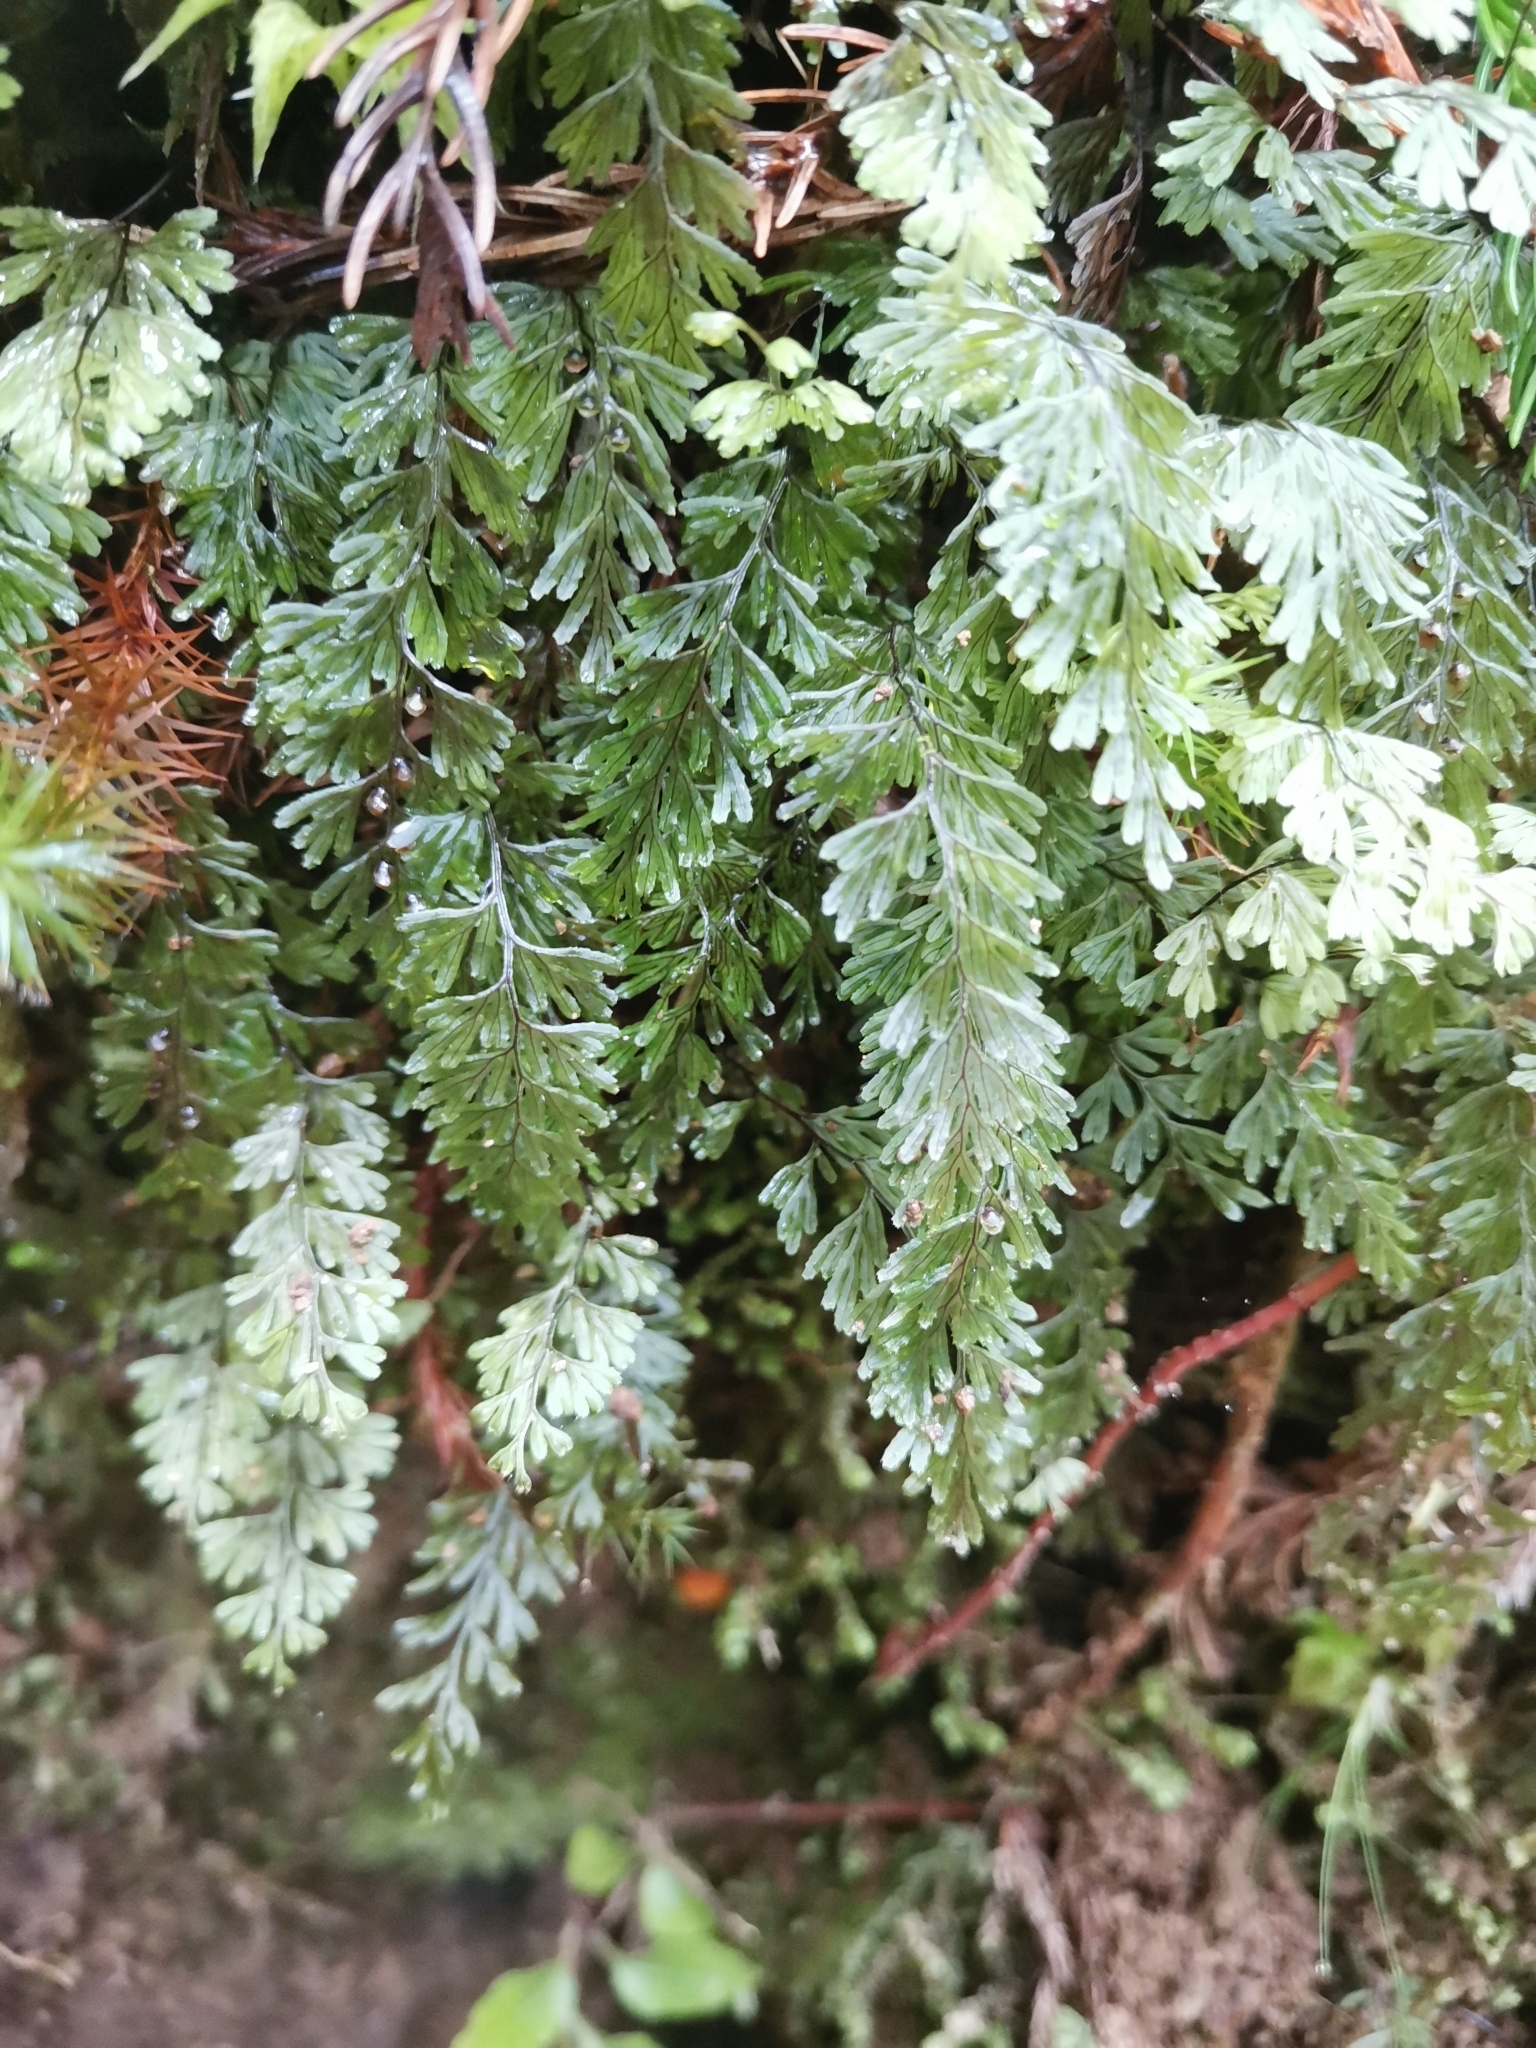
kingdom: Plantae
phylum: Tracheophyta
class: Polypodiopsida
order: Hymenophyllales
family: Hymenophyllaceae
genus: Hymenophyllum
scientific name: Hymenophyllum tunbrigense
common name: Tunbridge filmy fern
